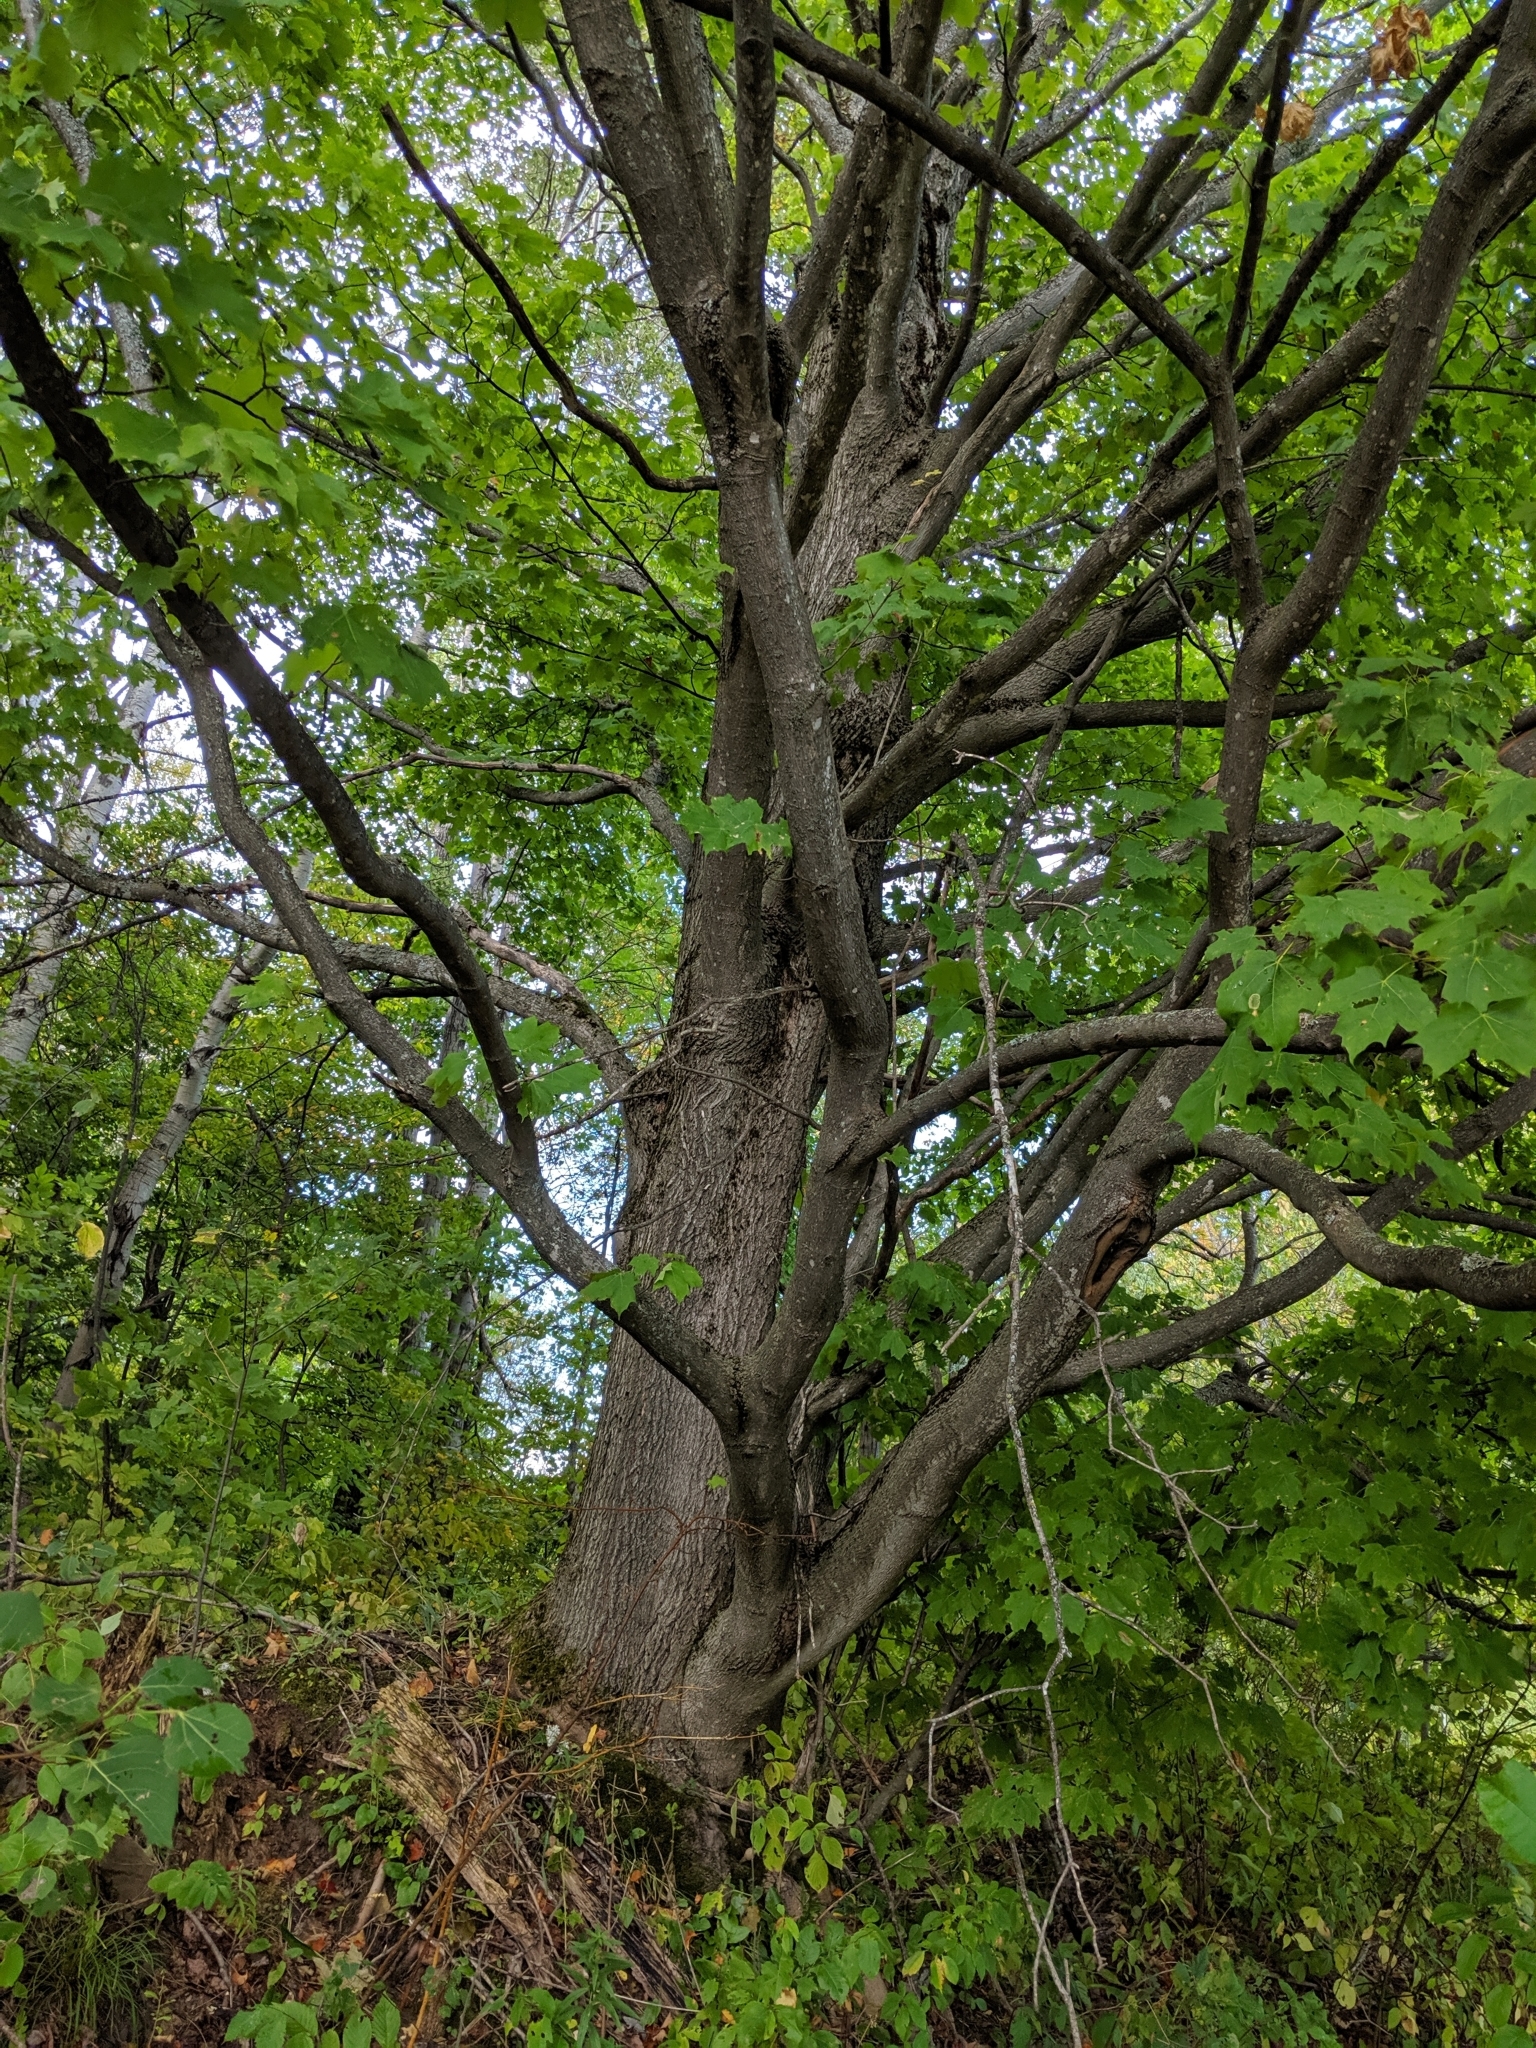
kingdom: Plantae
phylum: Tracheophyta
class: Magnoliopsida
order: Sapindales
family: Sapindaceae
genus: Acer
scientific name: Acer saccharum
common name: Sugar maple
